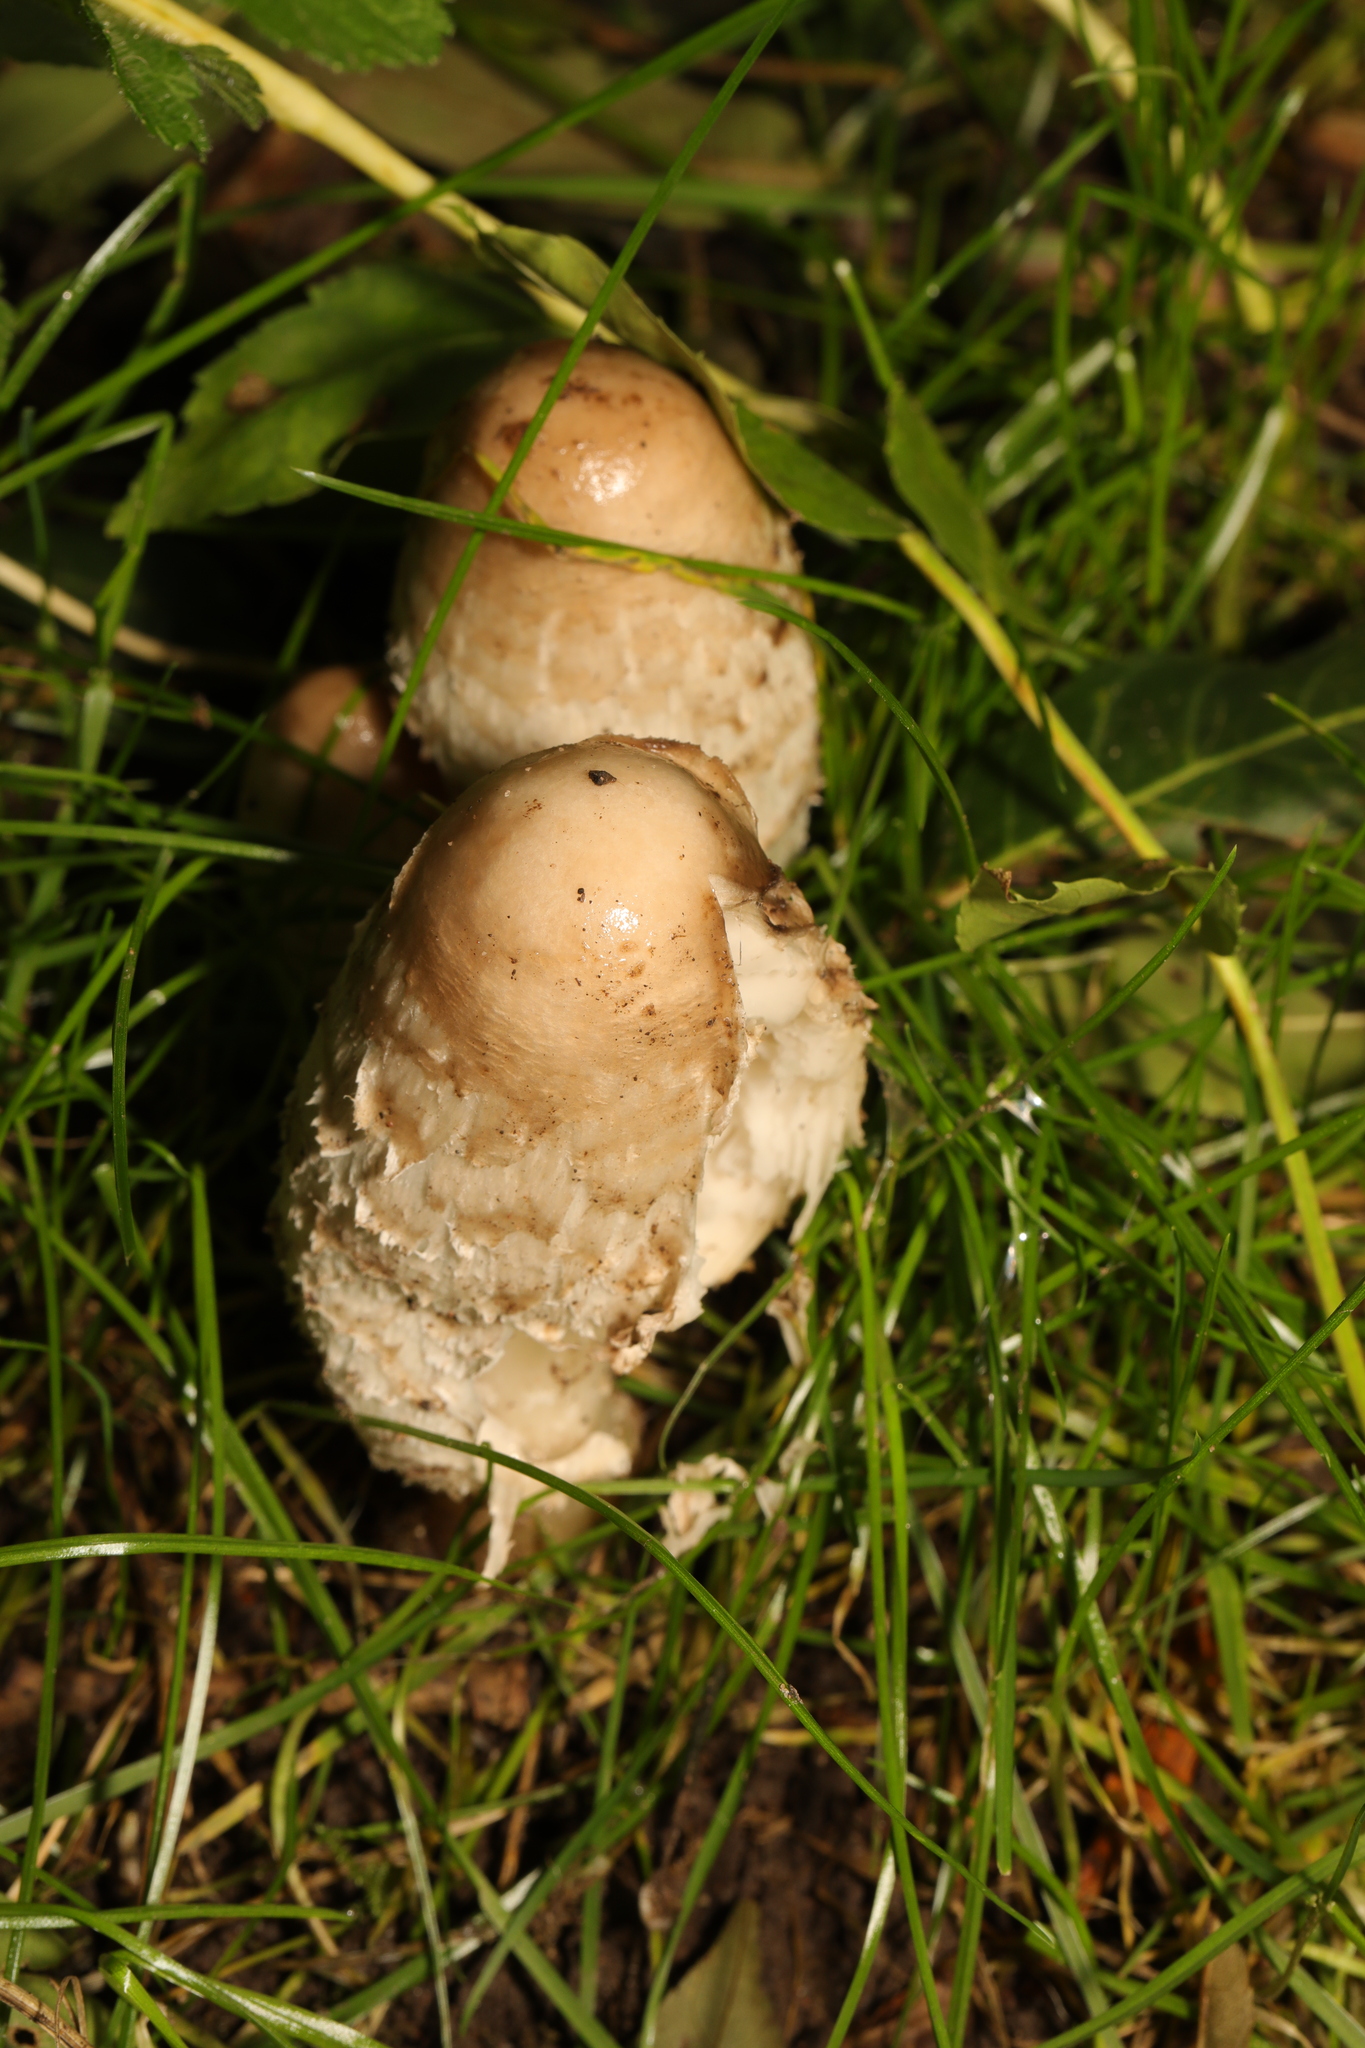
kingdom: Fungi
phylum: Basidiomycota
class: Agaricomycetes
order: Agaricales
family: Agaricaceae
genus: Coprinus
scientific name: Coprinus comatus
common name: Lawyer's wig
